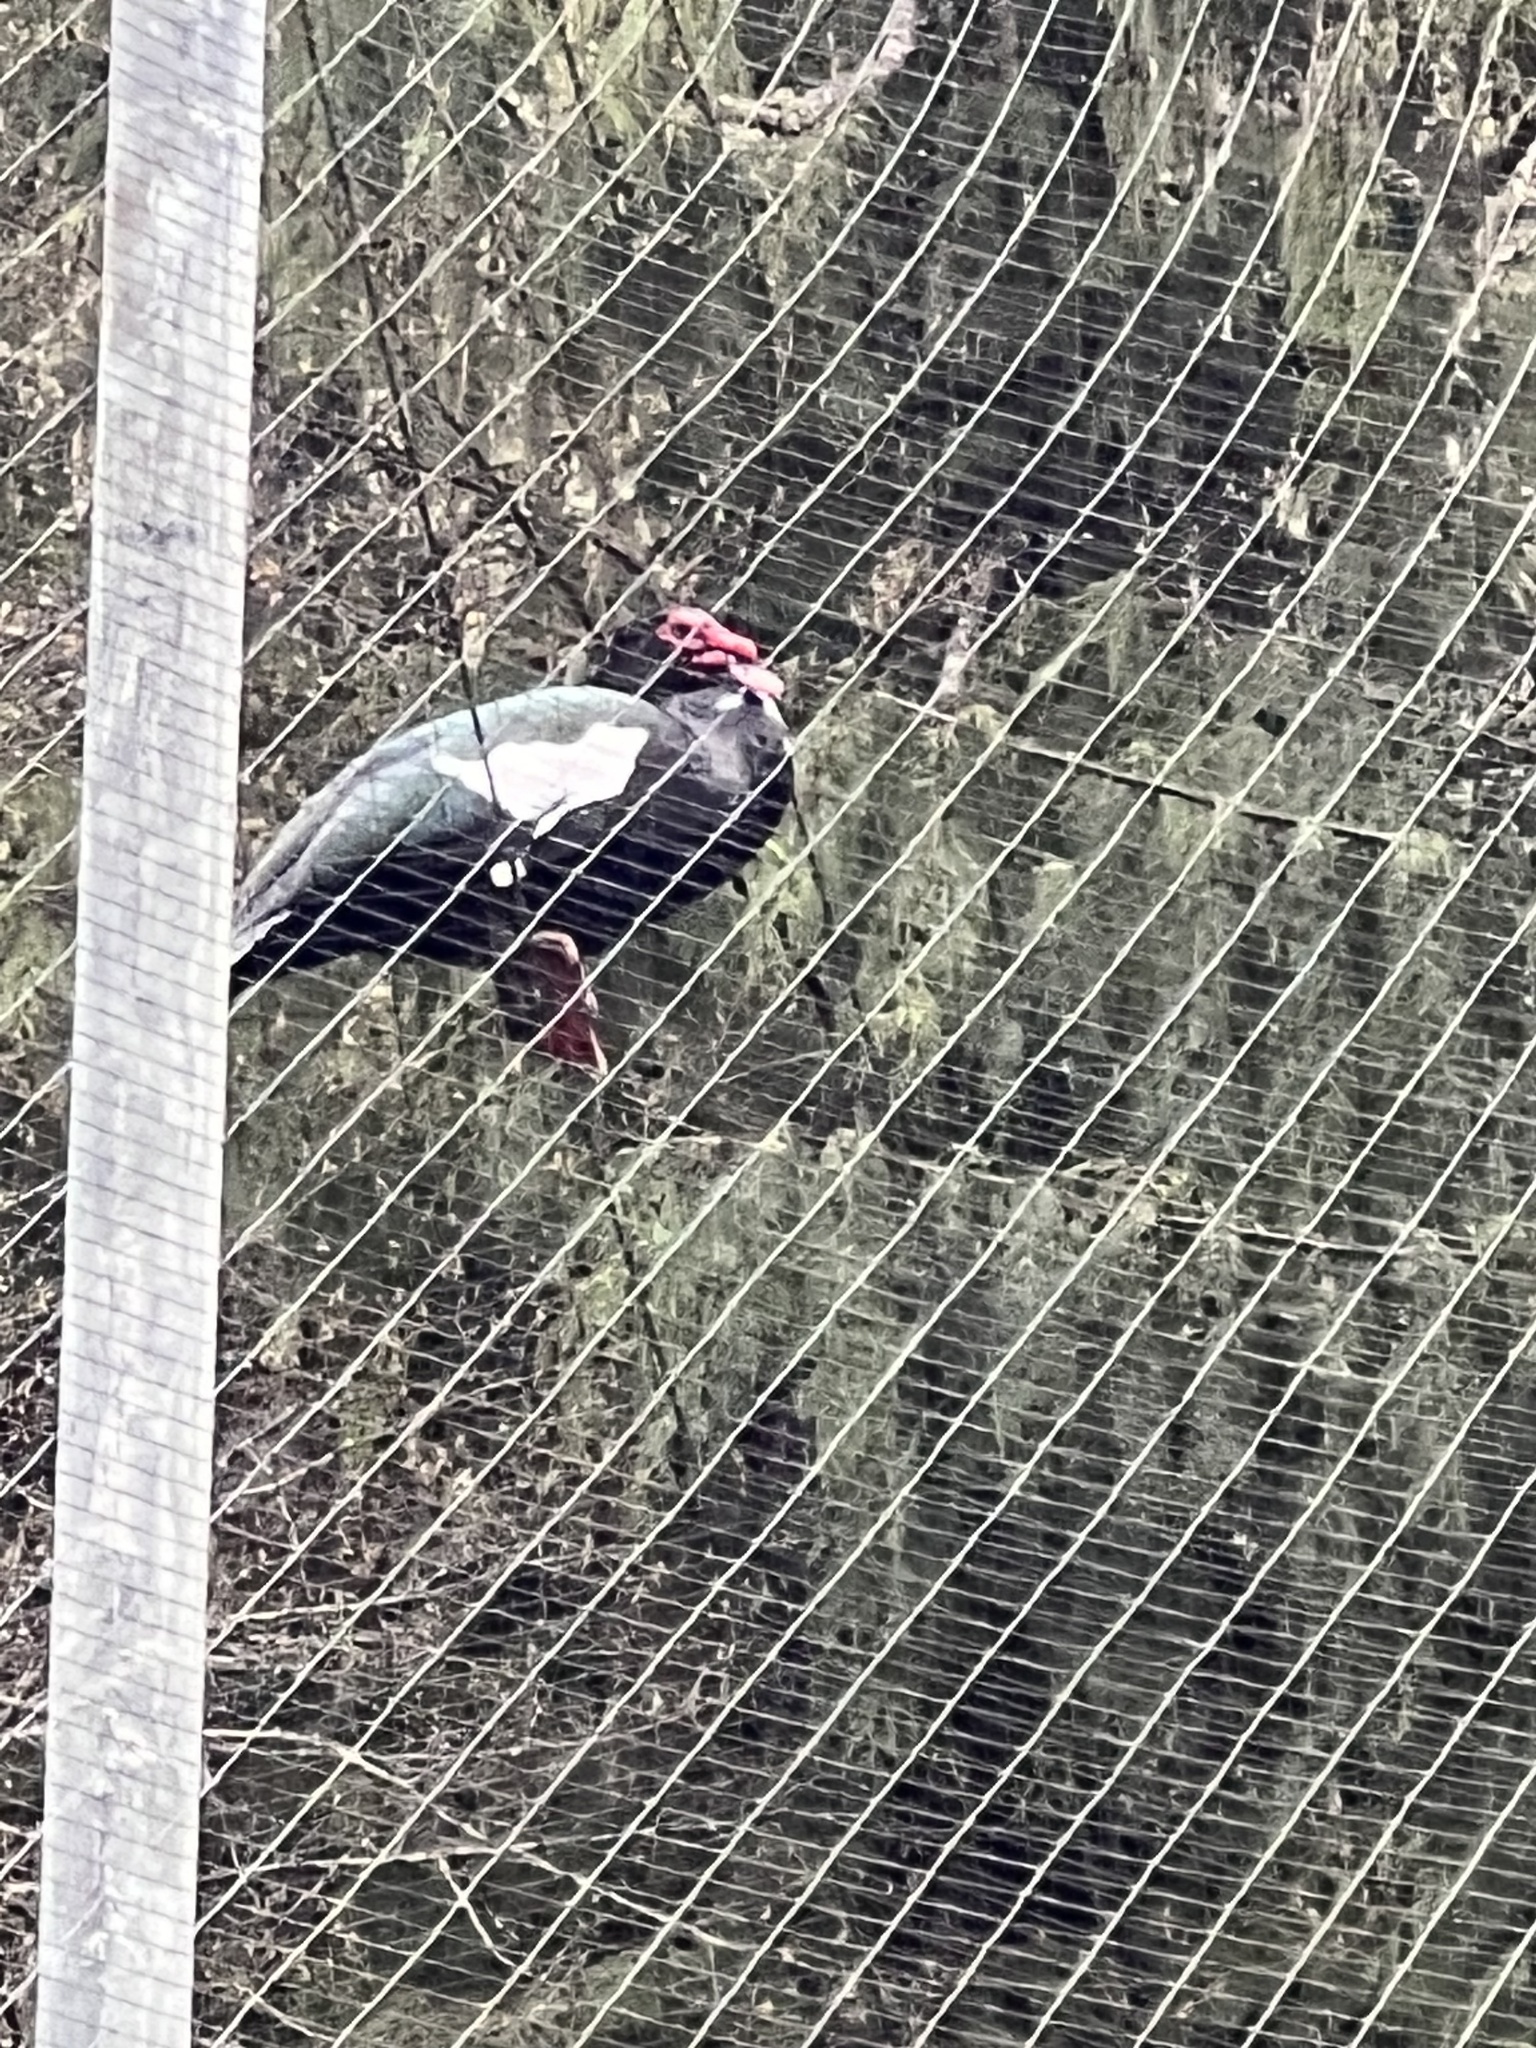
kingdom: Animalia
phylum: Chordata
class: Aves
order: Anseriformes
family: Anatidae
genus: Cairina
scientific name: Cairina moschata
